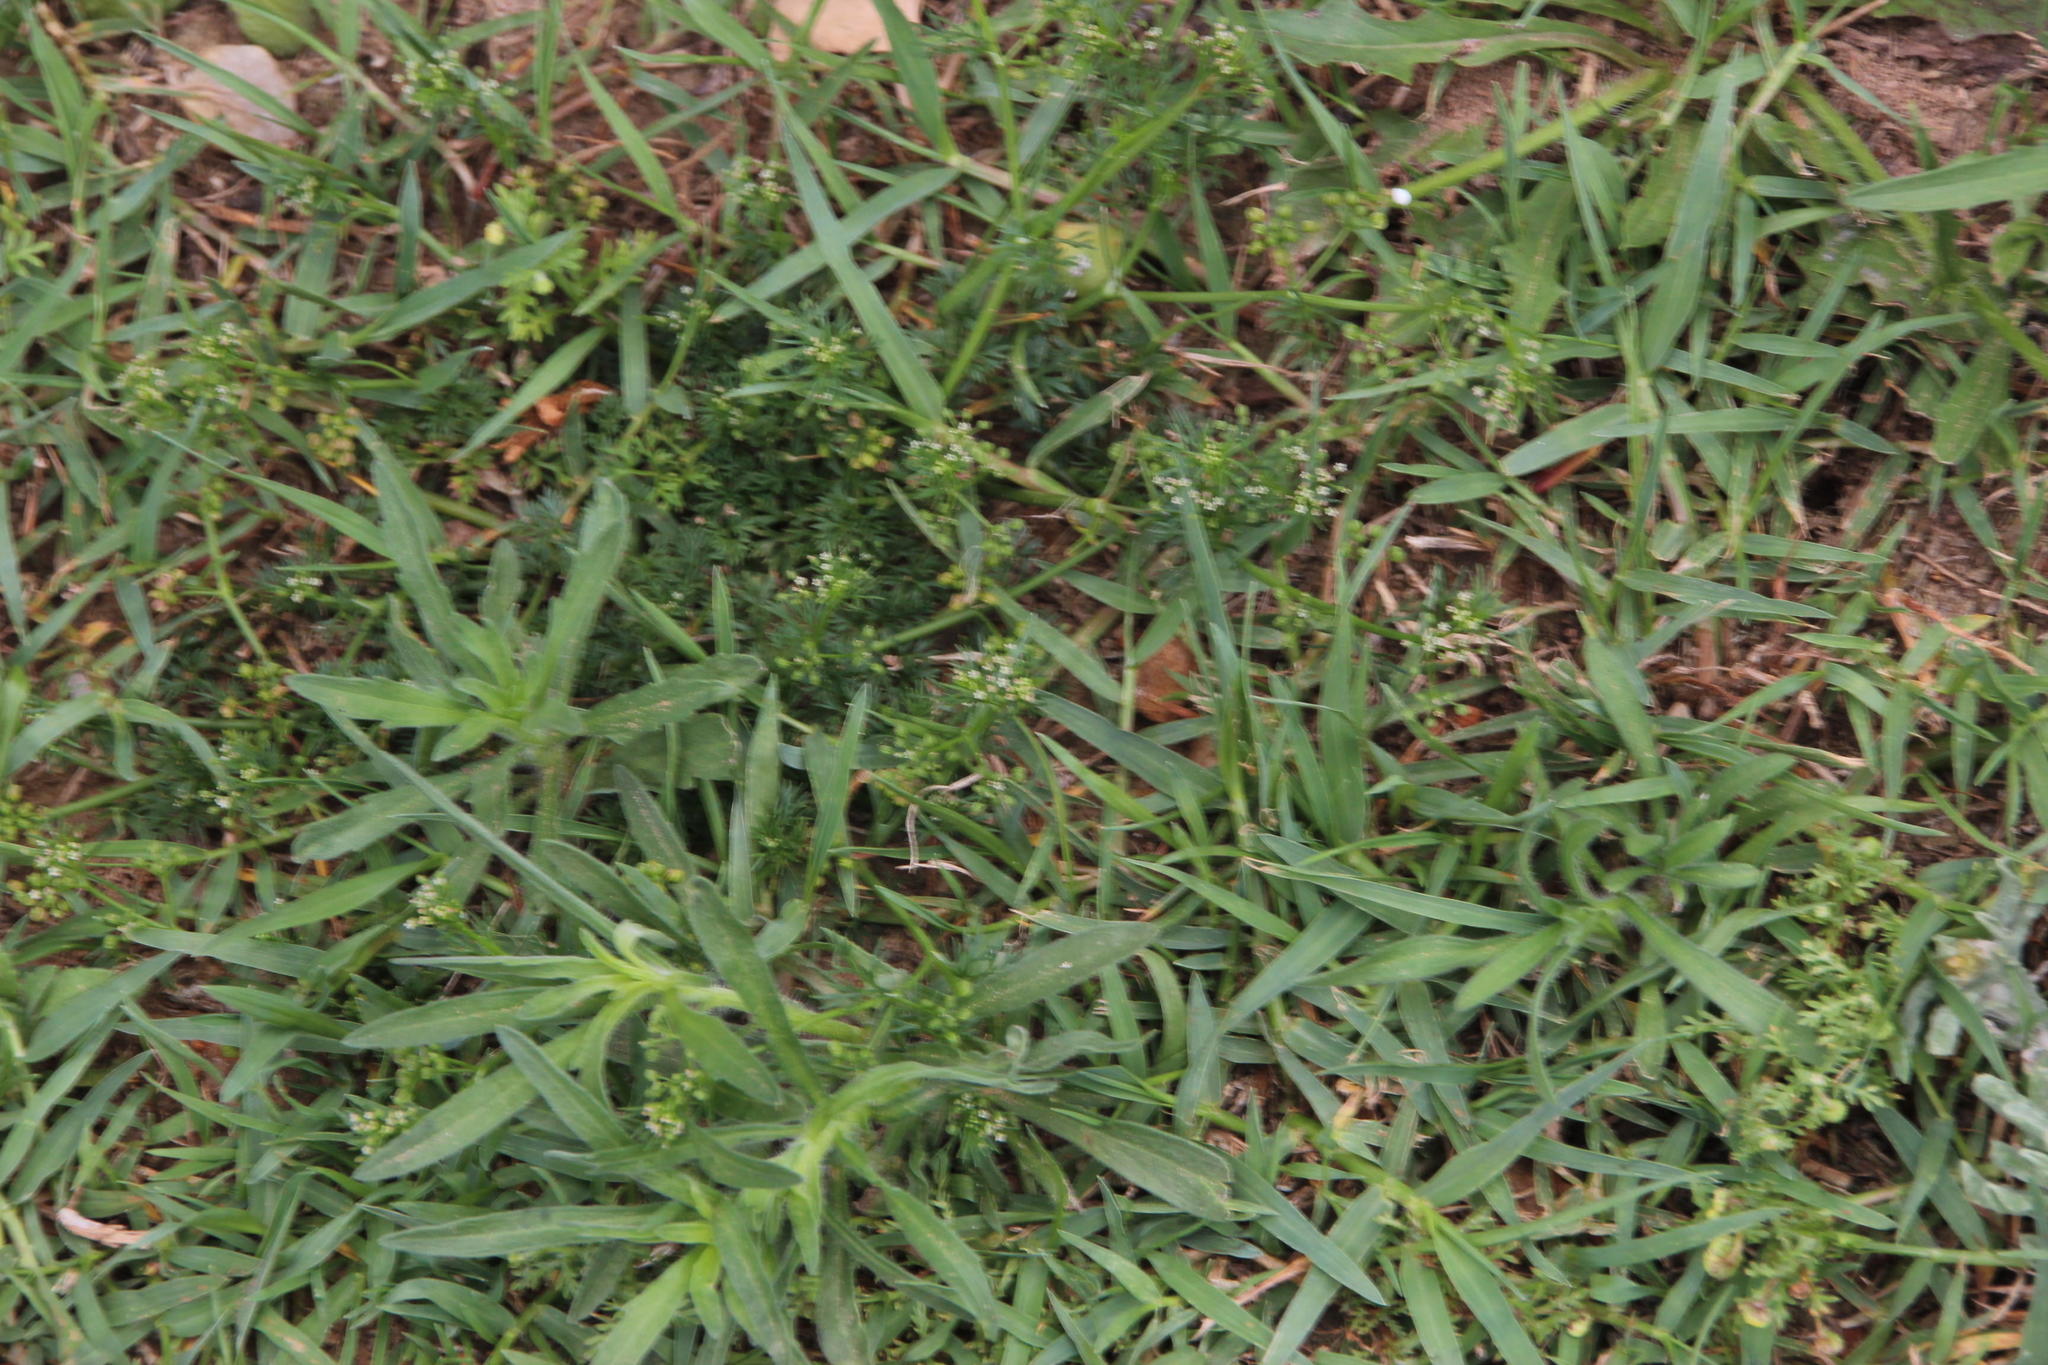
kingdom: Plantae
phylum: Tracheophyta
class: Magnoliopsida
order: Apiales
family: Apiaceae
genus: Cyclospermum
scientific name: Cyclospermum leptophyllum
